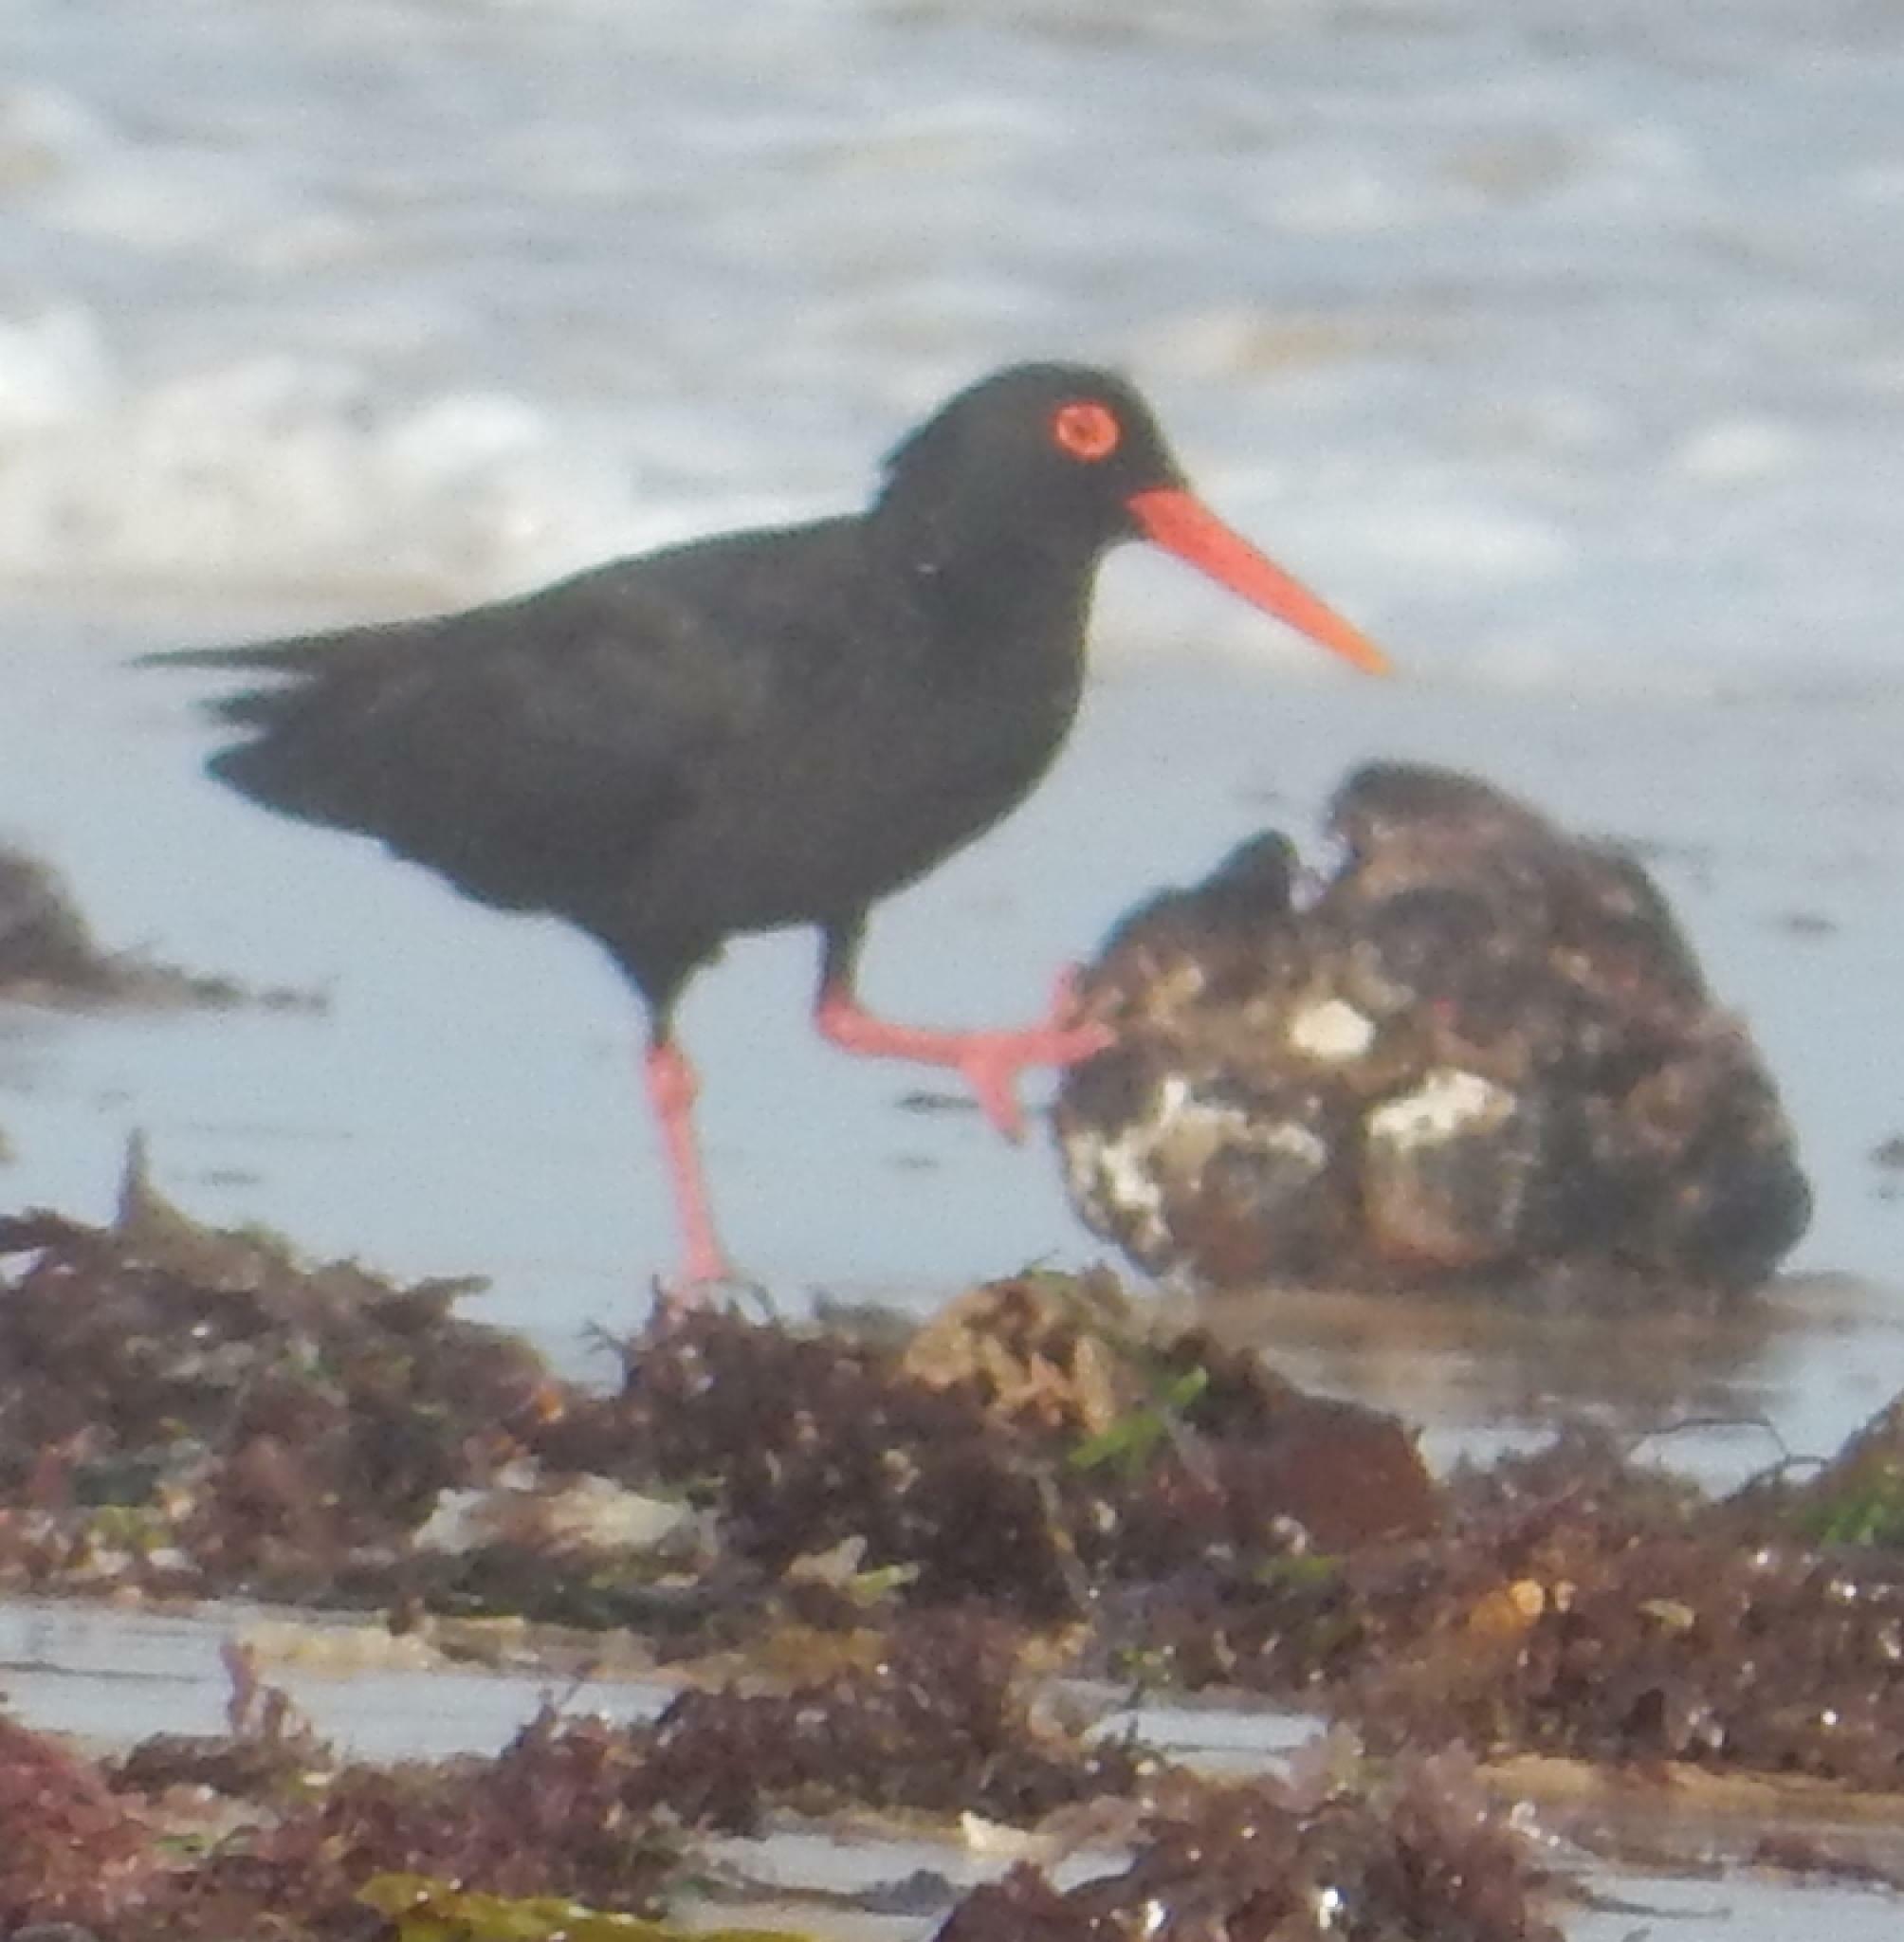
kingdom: Animalia
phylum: Chordata
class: Aves
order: Charadriiformes
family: Haematopodidae
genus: Haematopus
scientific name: Haematopus moquini
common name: African oystercatcher
